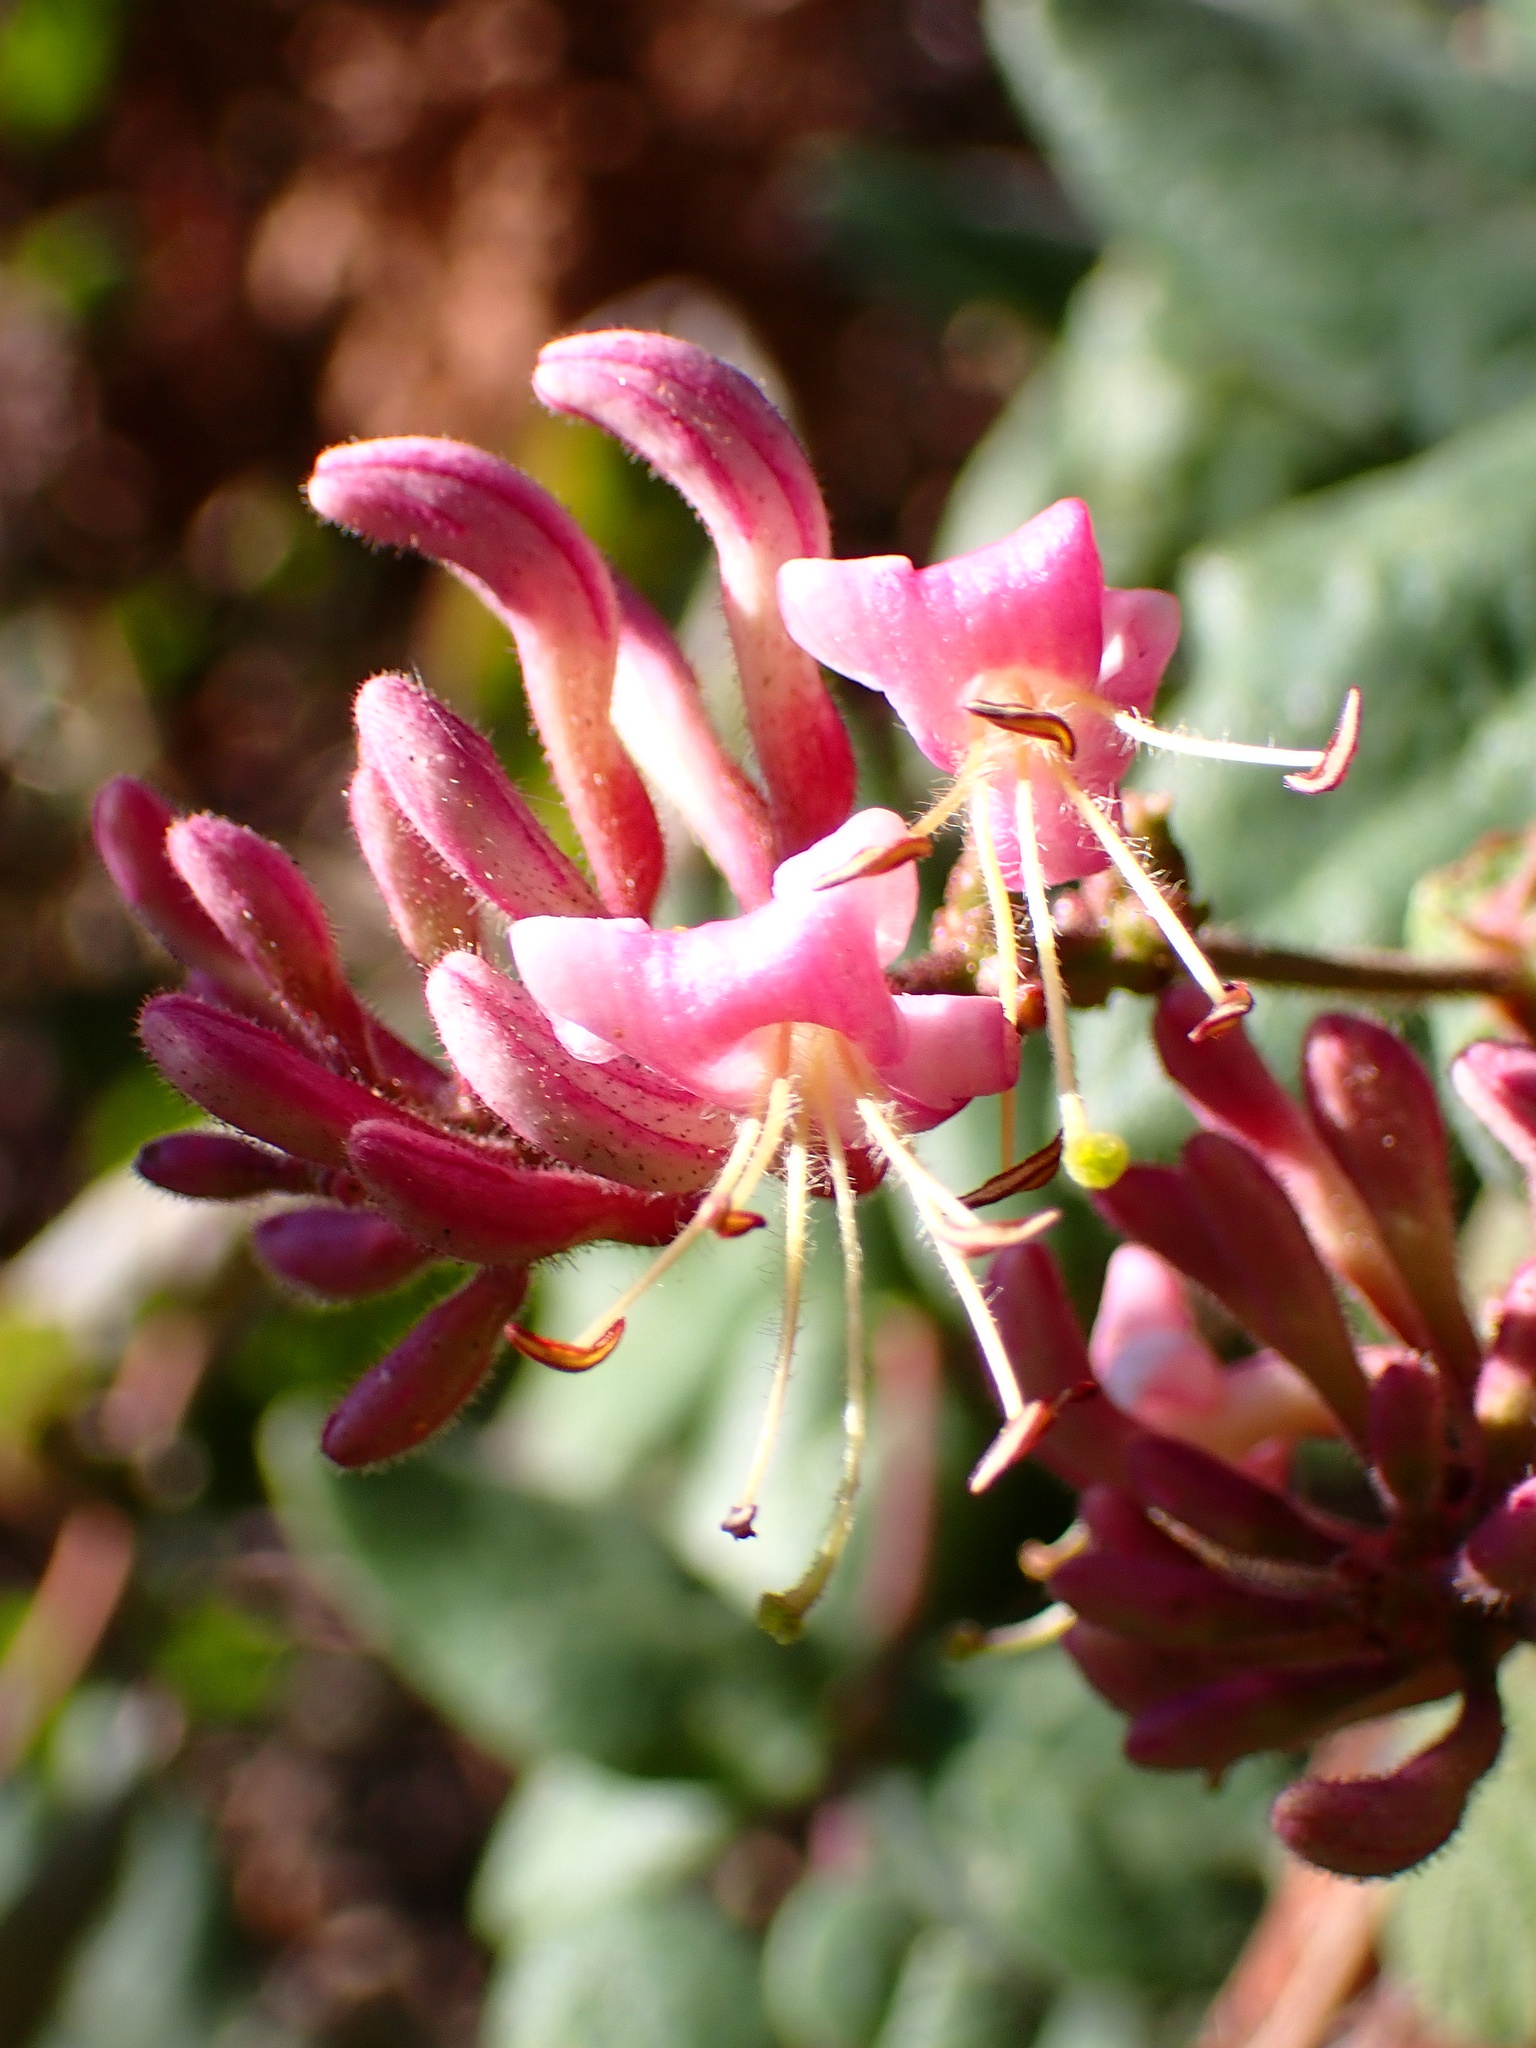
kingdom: Plantae
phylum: Tracheophyta
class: Magnoliopsida
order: Dipsacales
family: Caprifoliaceae
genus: Lonicera
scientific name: Lonicera hispidula
